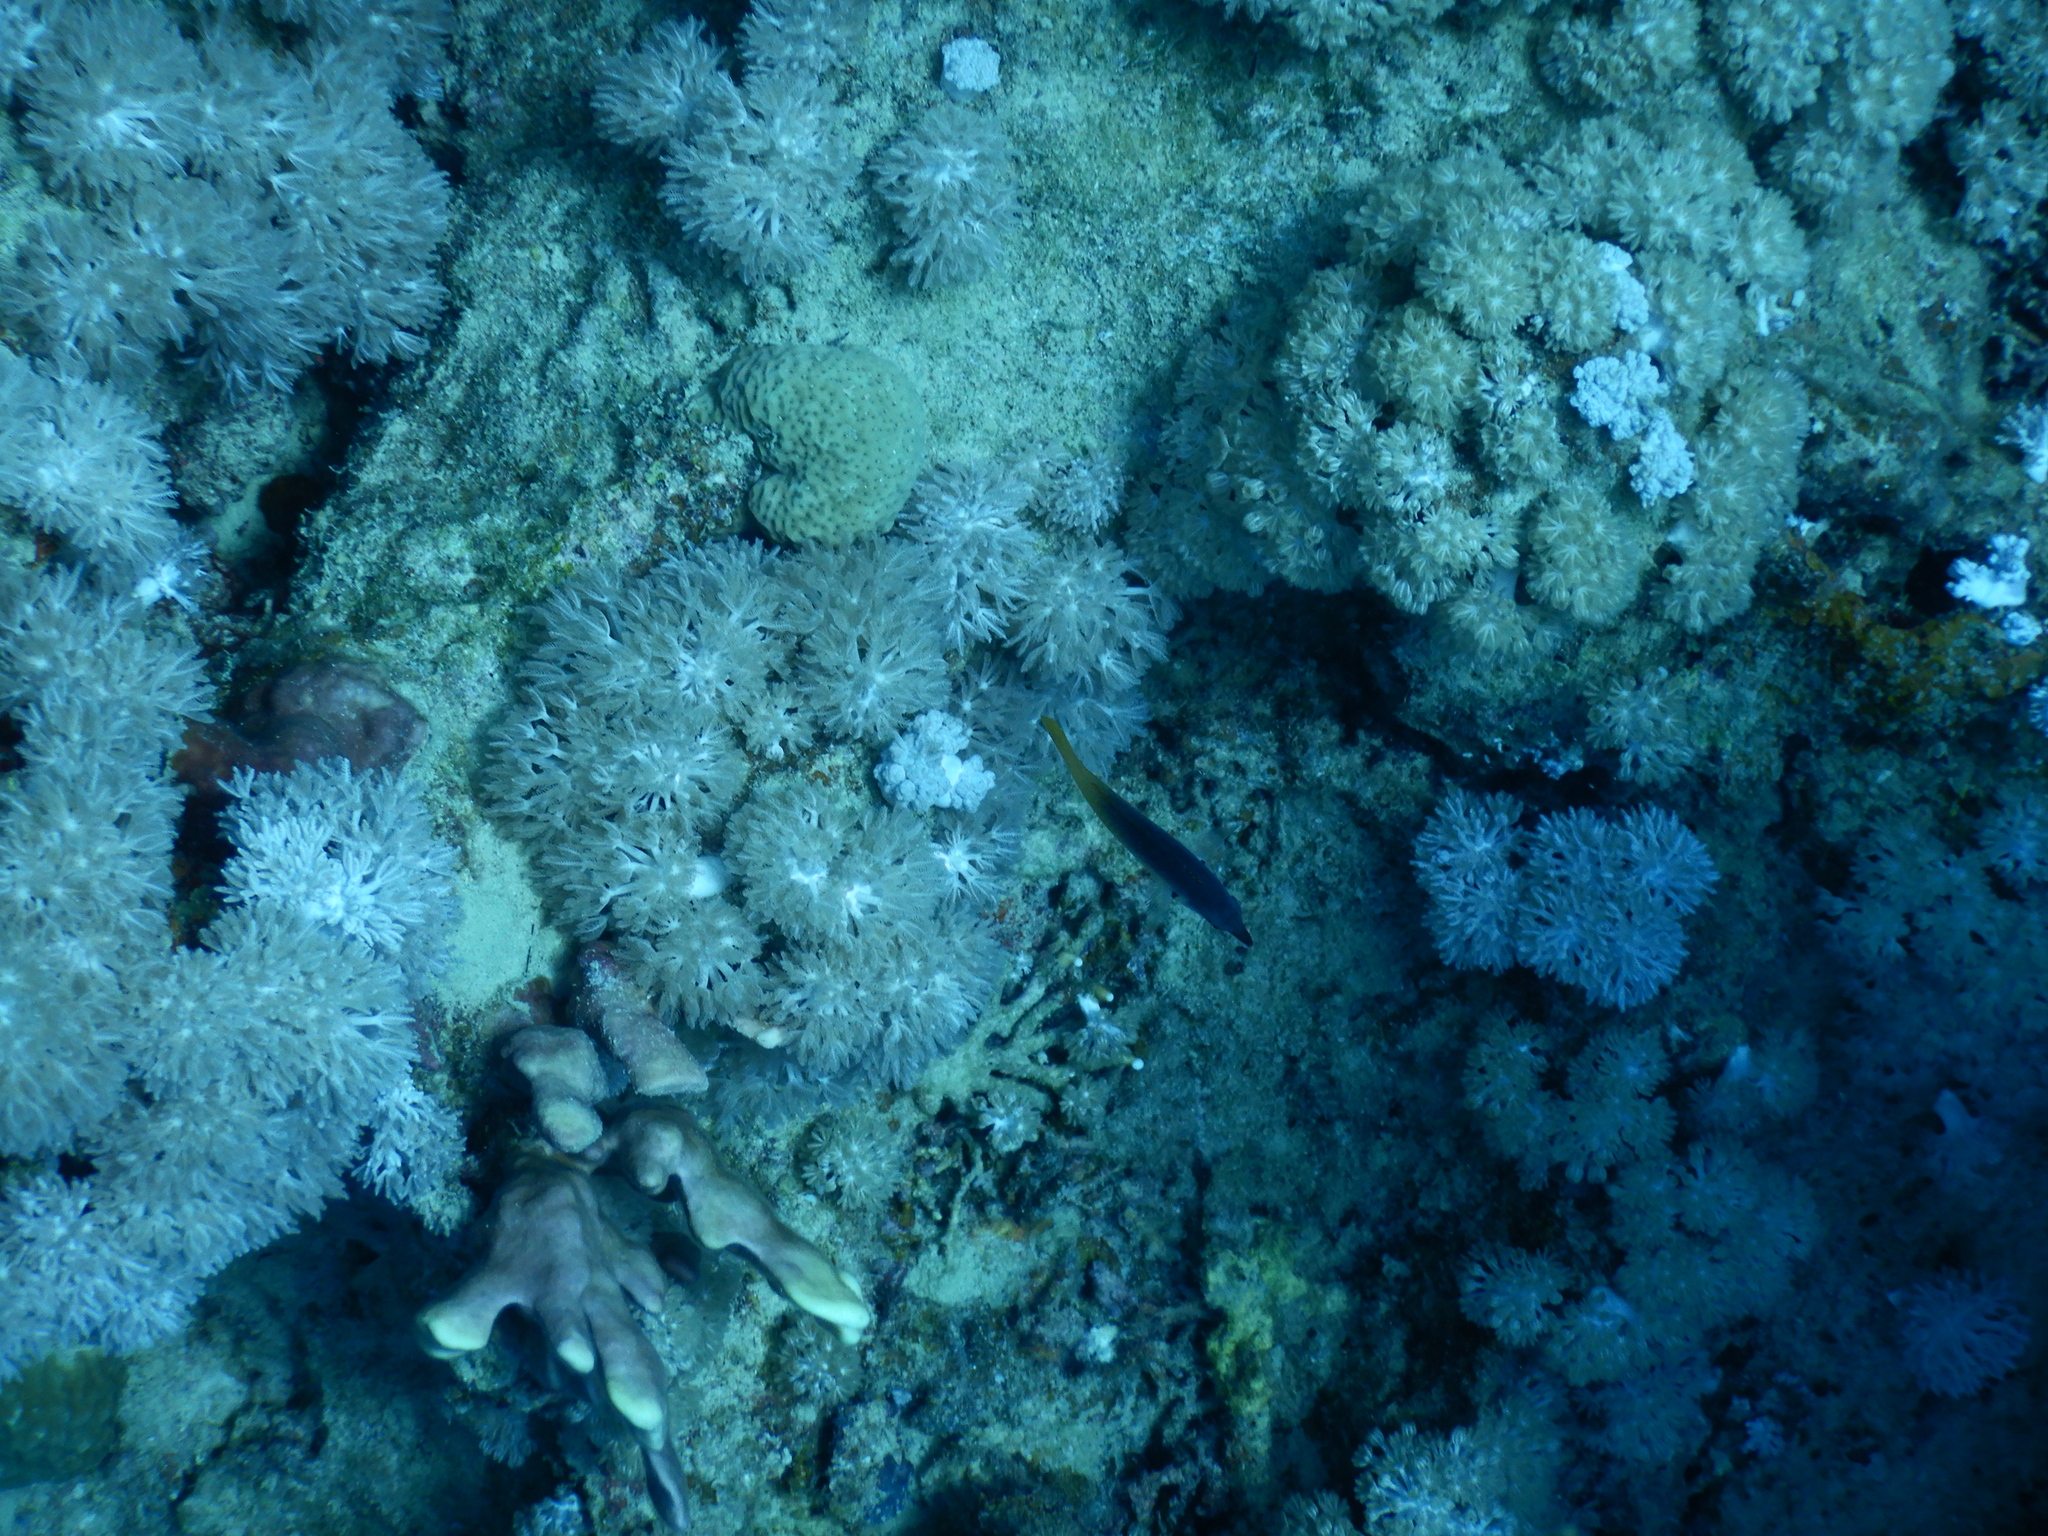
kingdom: Animalia
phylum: Chordata
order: Perciformes
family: Labridae
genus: Gomphosus
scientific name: Gomphosus klunzingeri
